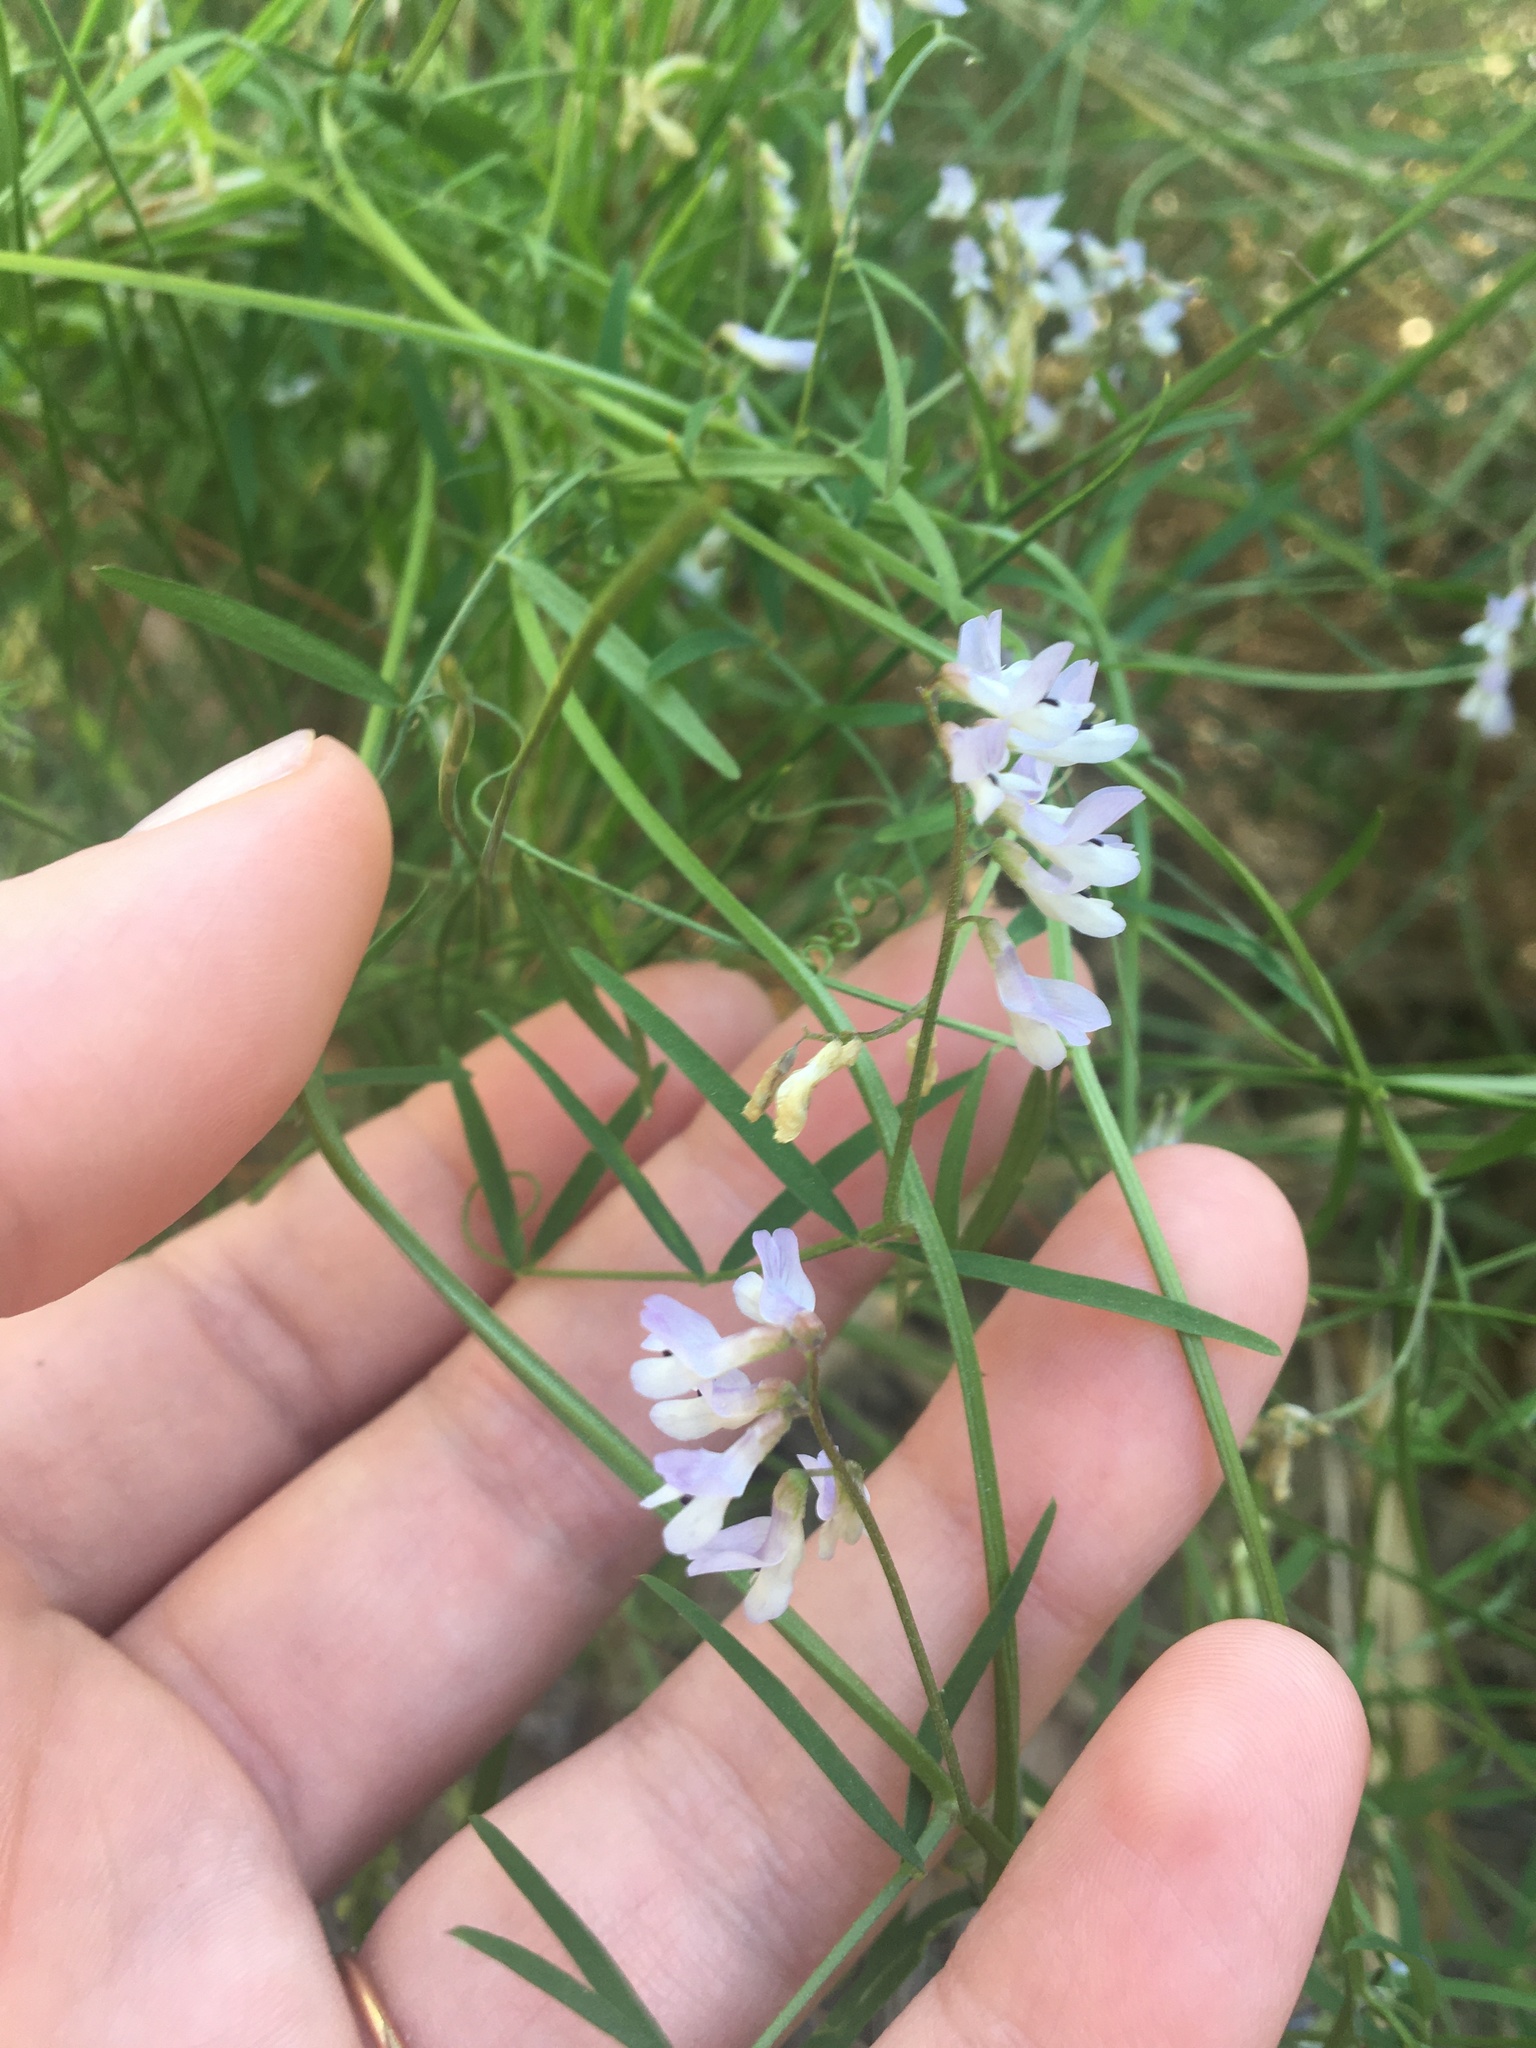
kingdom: Plantae
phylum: Tracheophyta
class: Magnoliopsida
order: Fabales
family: Fabaceae
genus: Vicia
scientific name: Vicia caroliniana
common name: Carolina vetch
